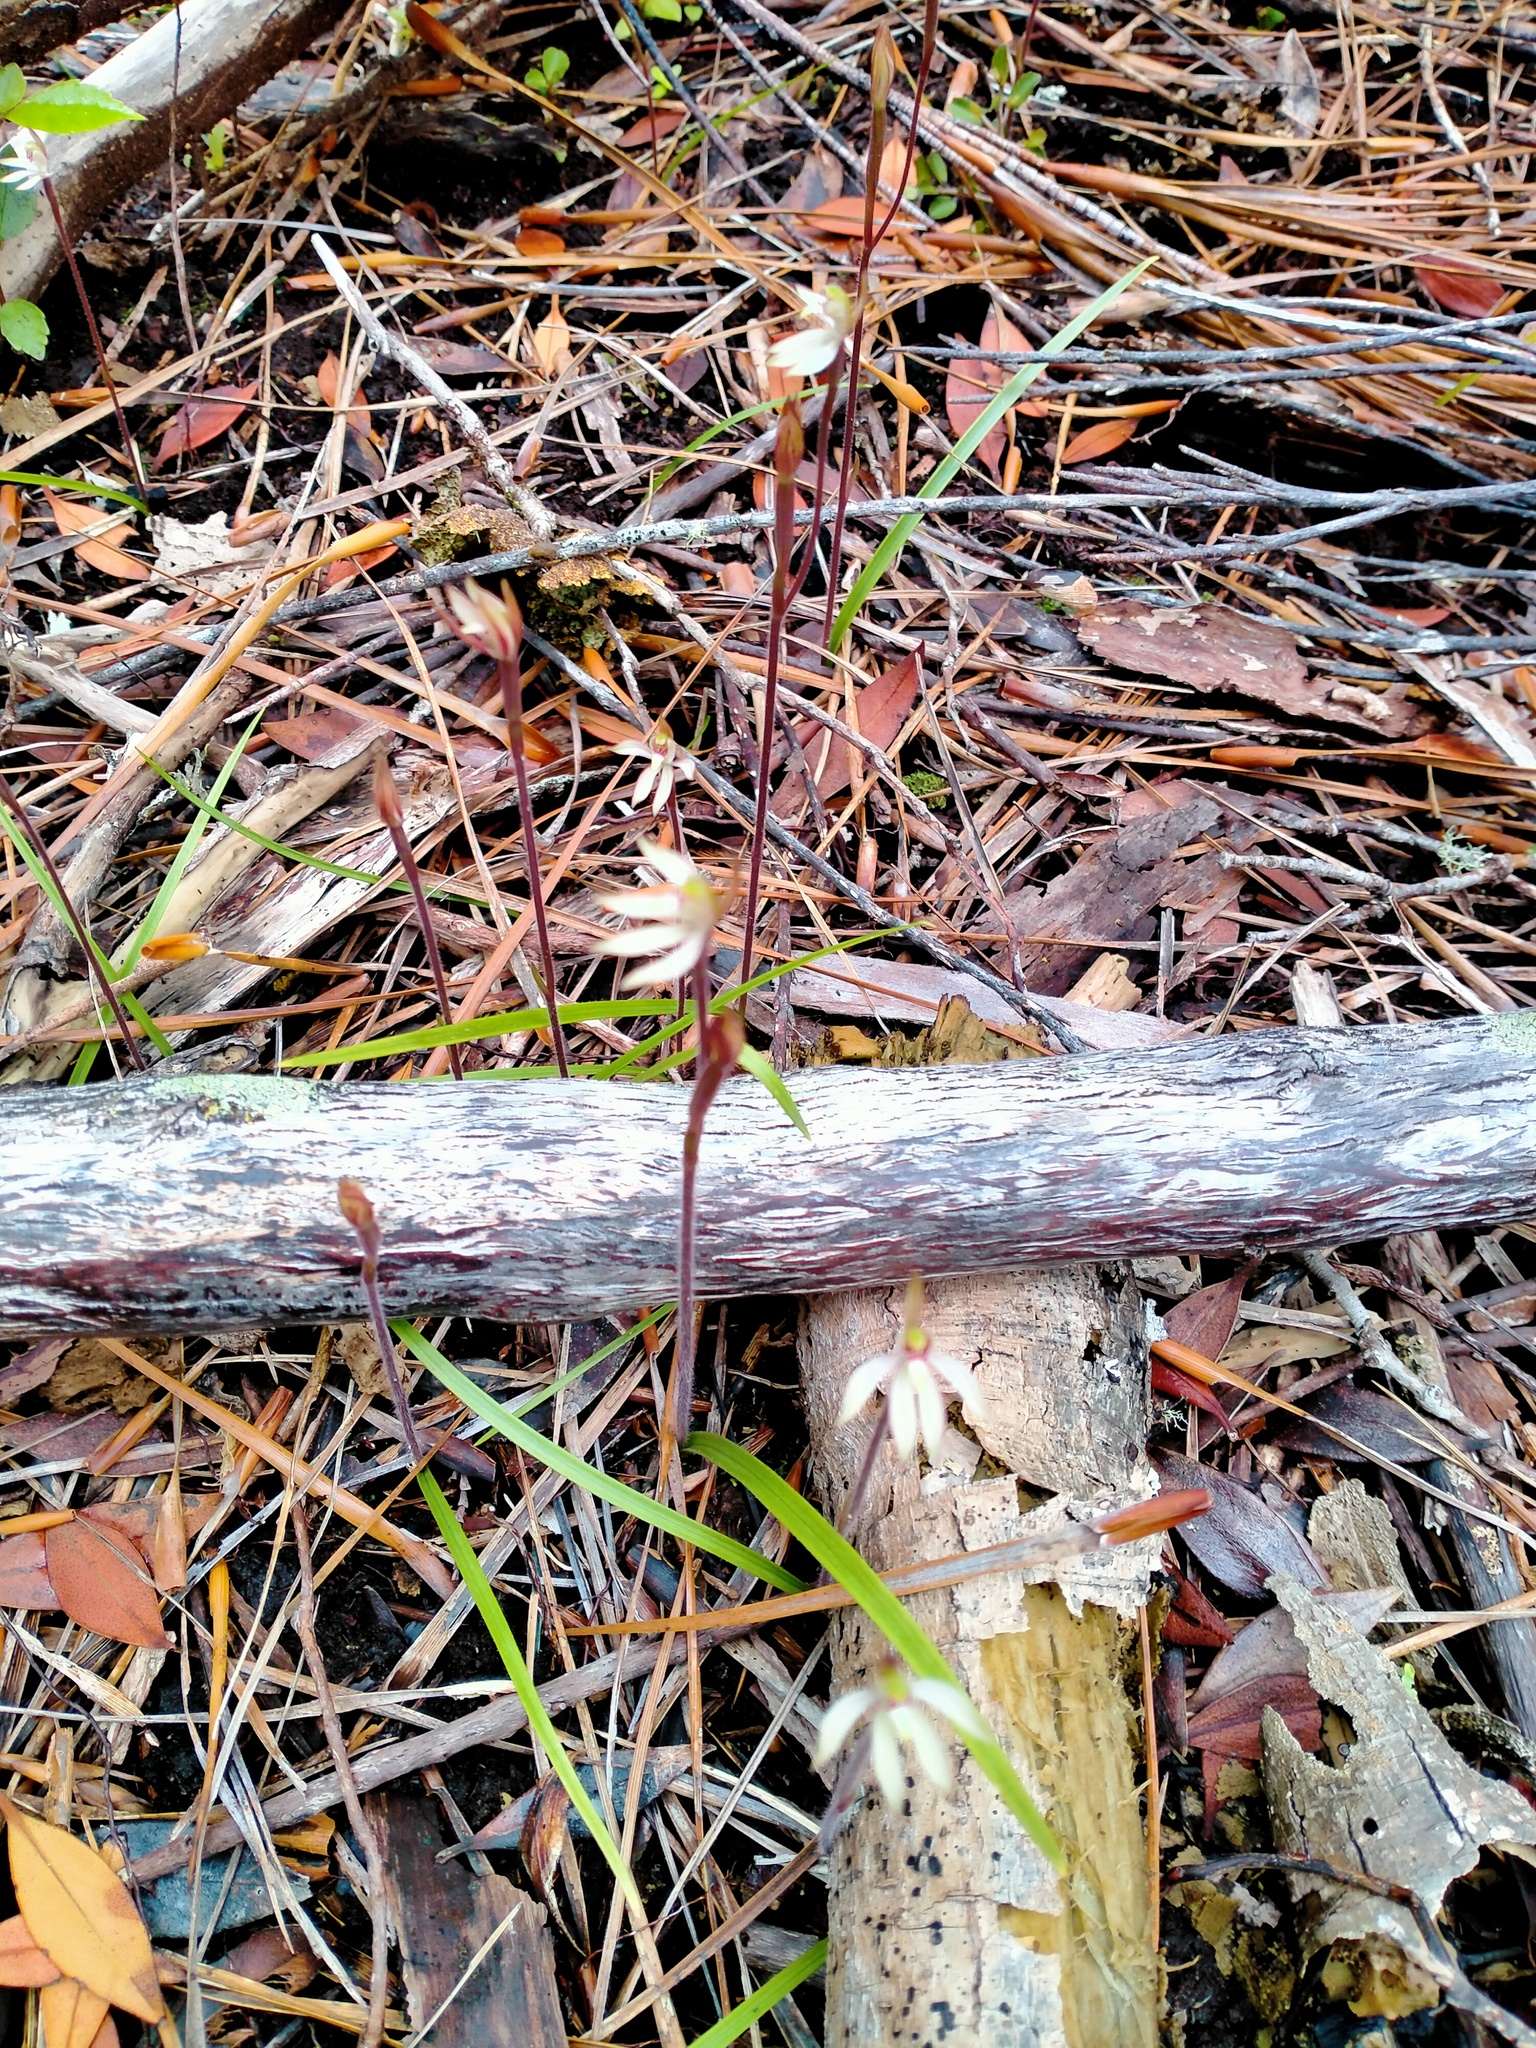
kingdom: Plantae
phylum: Tracheophyta
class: Liliopsida
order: Asparagales
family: Orchidaceae
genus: Caladenia
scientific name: Caladenia chlorostyla
